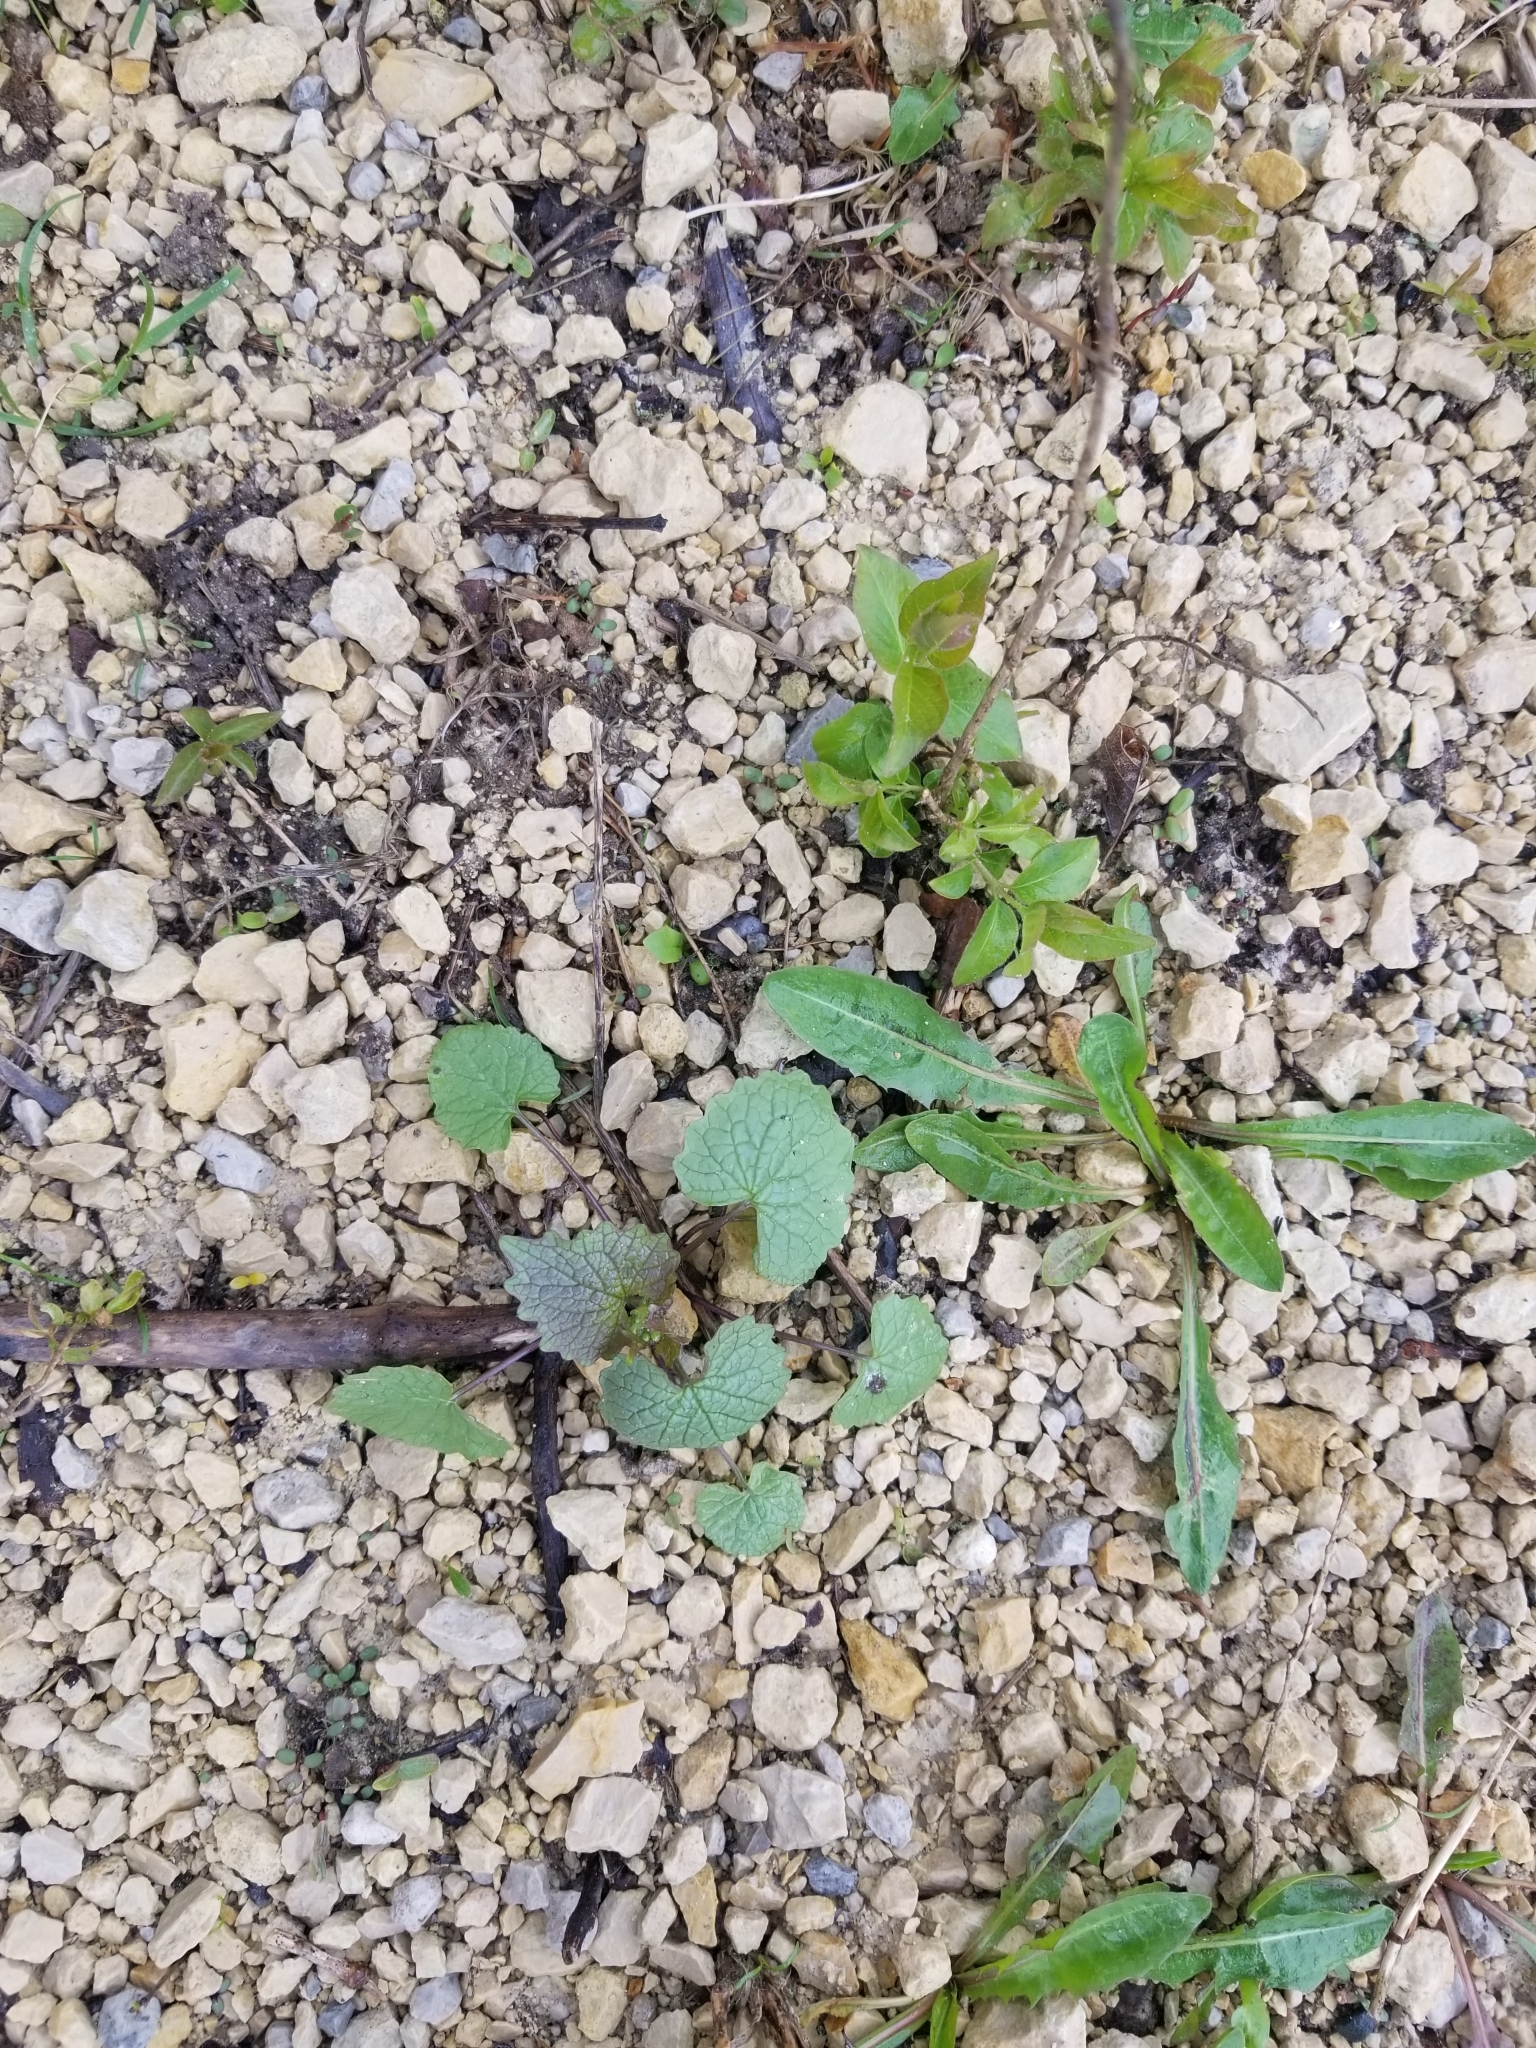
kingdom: Plantae
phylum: Tracheophyta
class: Magnoliopsida
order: Brassicales
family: Brassicaceae
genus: Alliaria
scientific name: Alliaria petiolata
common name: Garlic mustard
